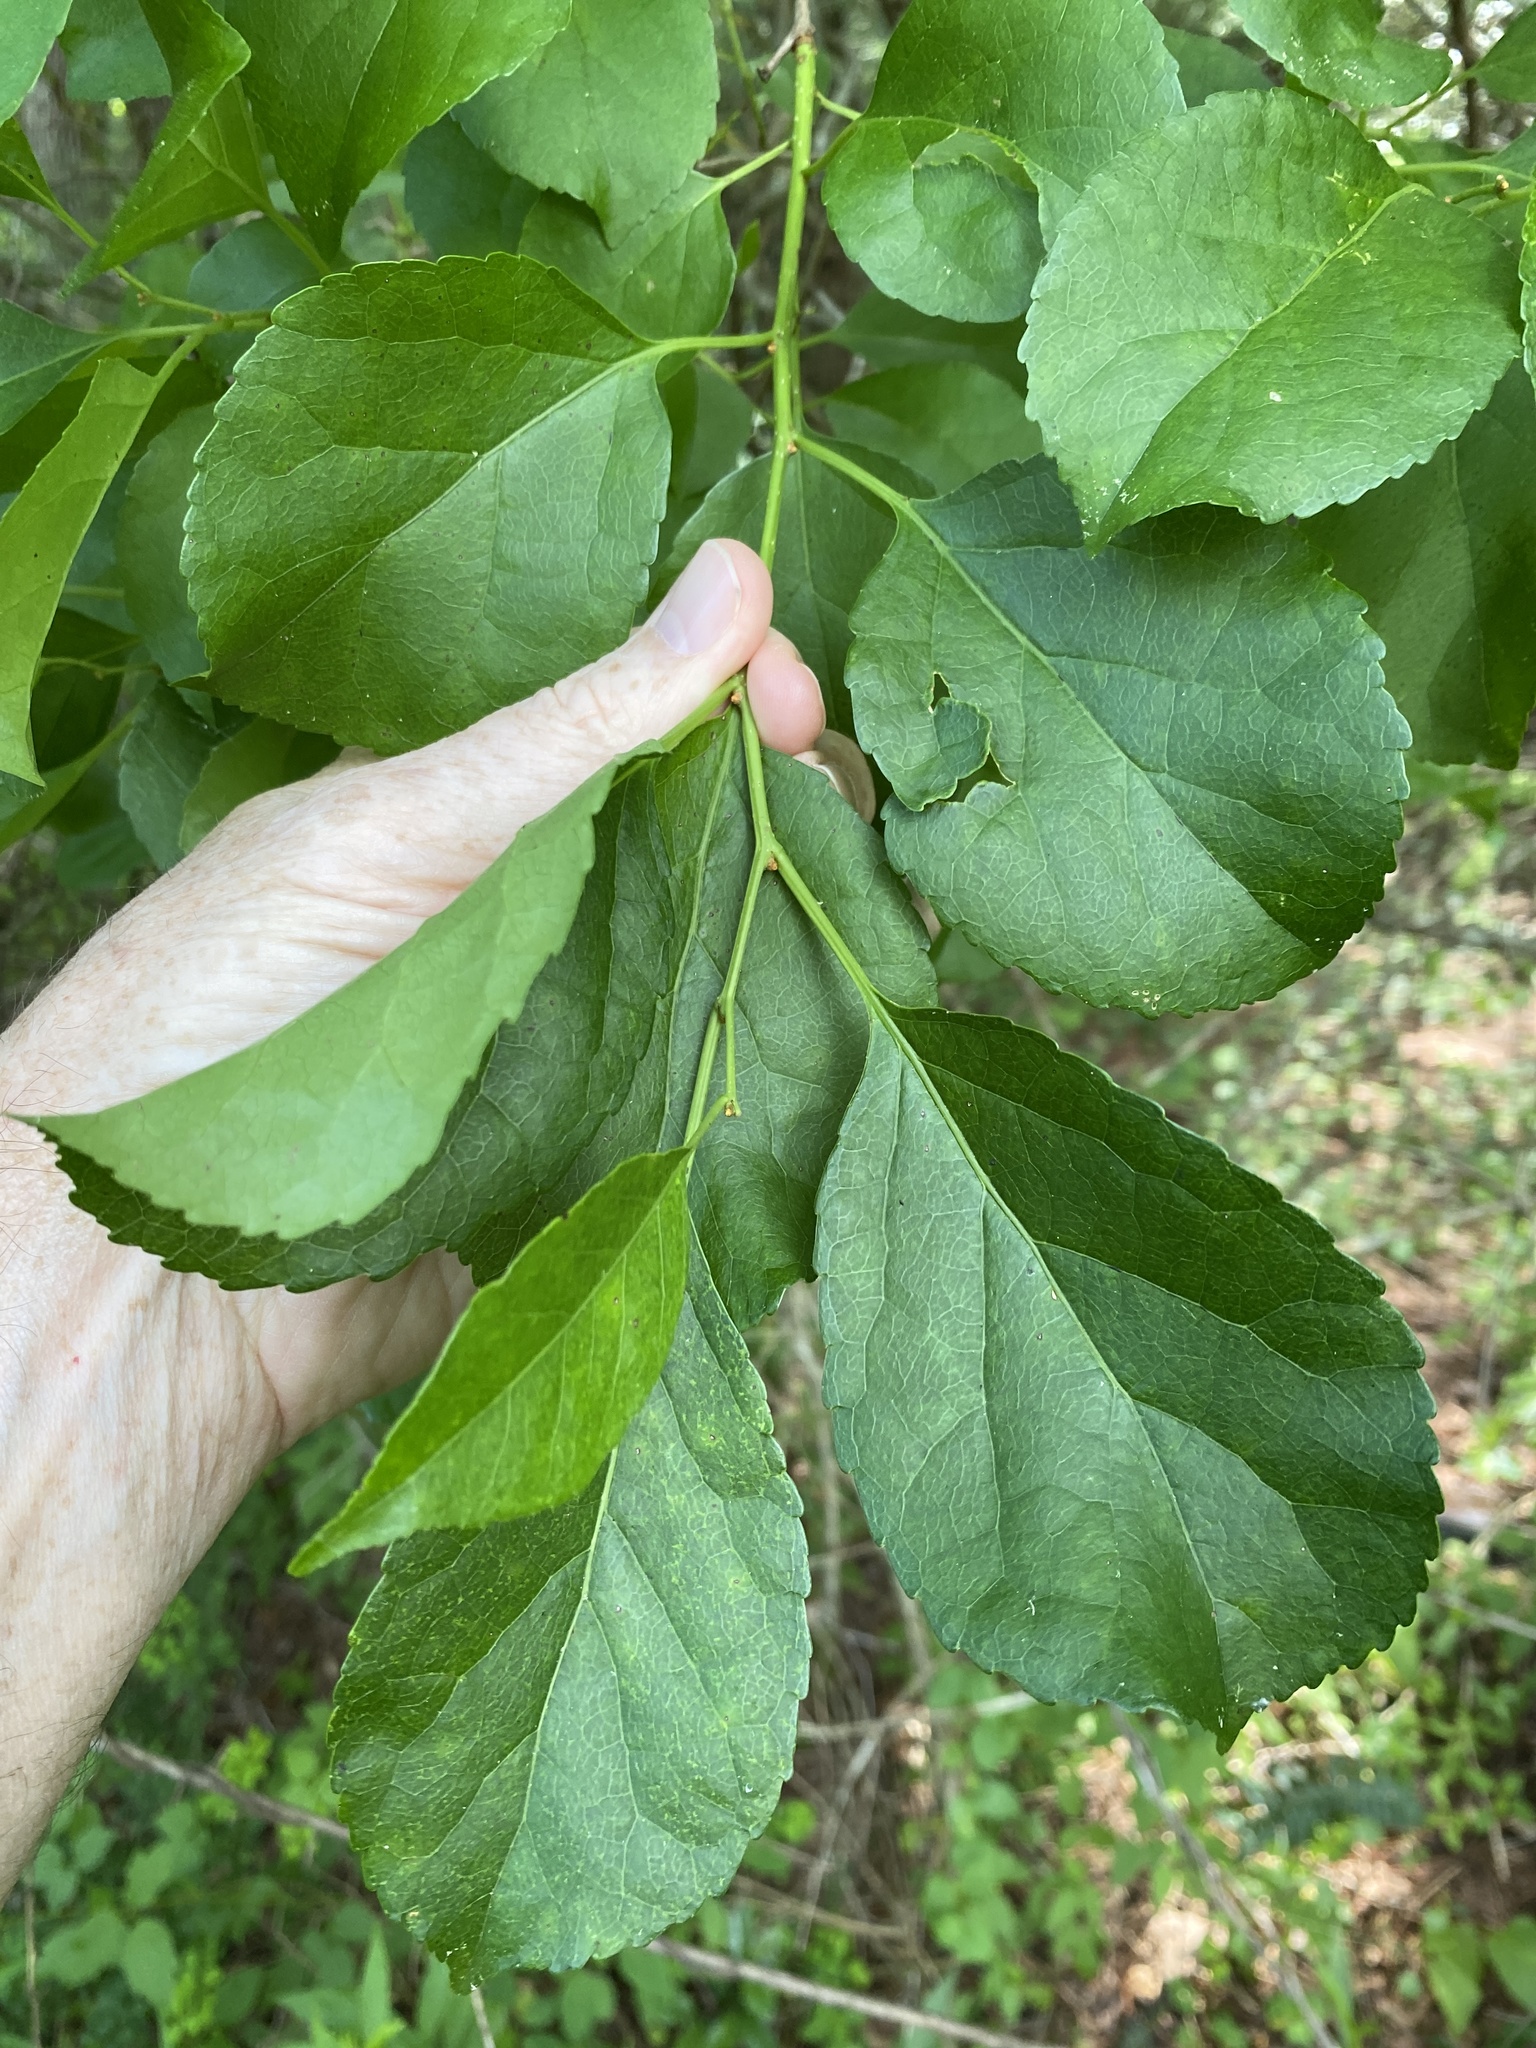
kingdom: Plantae
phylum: Tracheophyta
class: Magnoliopsida
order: Celastrales
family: Celastraceae
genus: Celastrus
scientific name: Celastrus orbiculatus
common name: Oriental bittersweet
